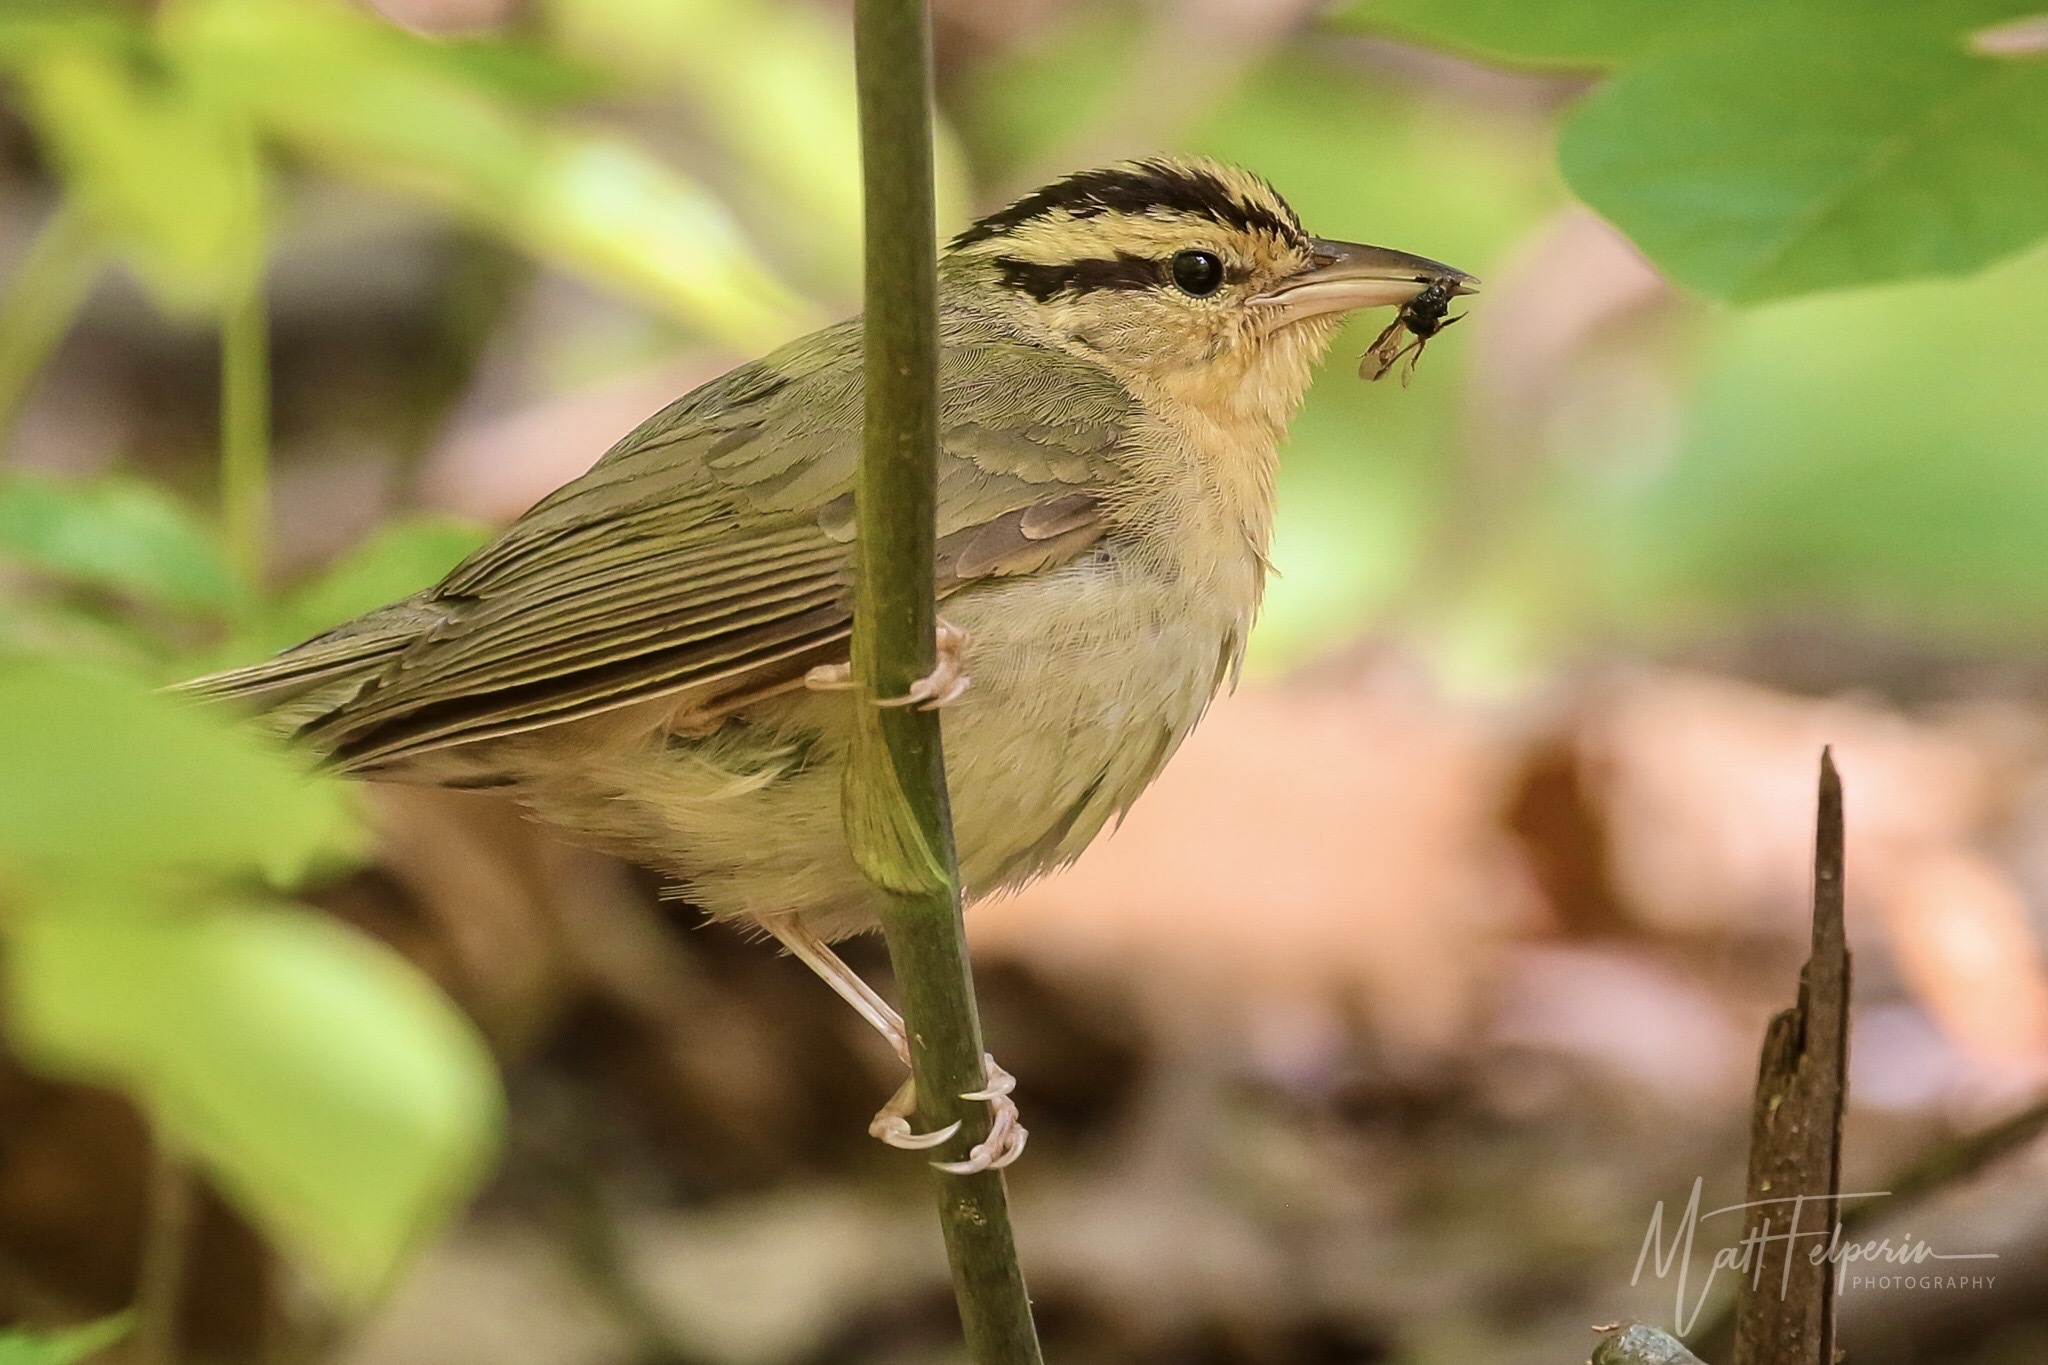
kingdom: Animalia
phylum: Chordata
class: Aves
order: Passeriformes
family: Parulidae
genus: Helmitheros
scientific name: Helmitheros vermivorum
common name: Worm-eating warbler
